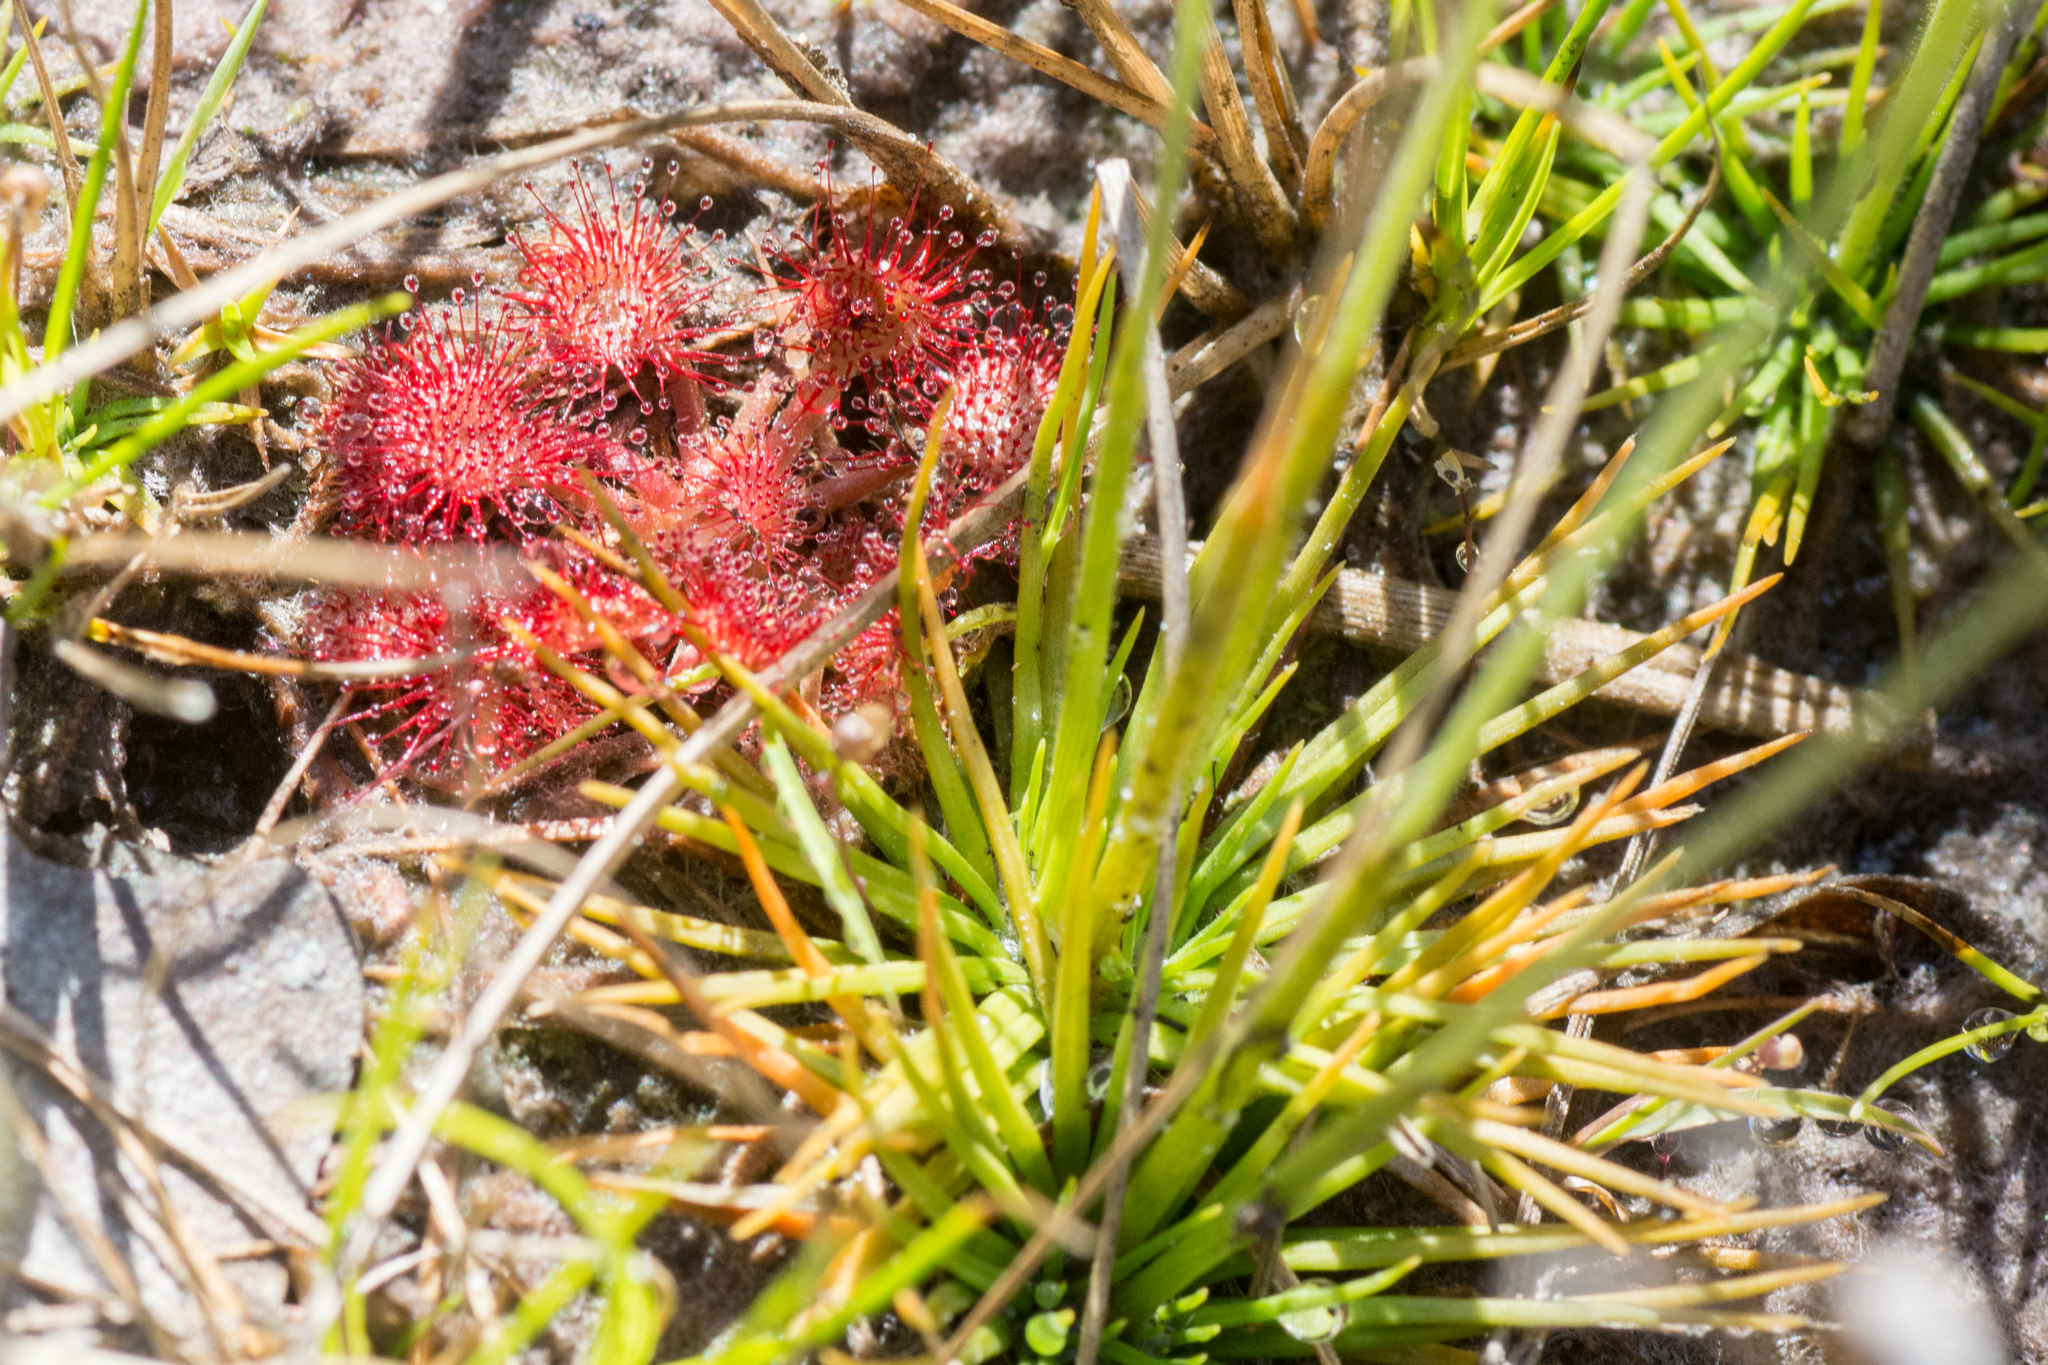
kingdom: Plantae
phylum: Tracheophyta
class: Magnoliopsida
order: Caryophyllales
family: Droseraceae
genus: Drosera
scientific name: Drosera capillaris
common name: Pink sundew
